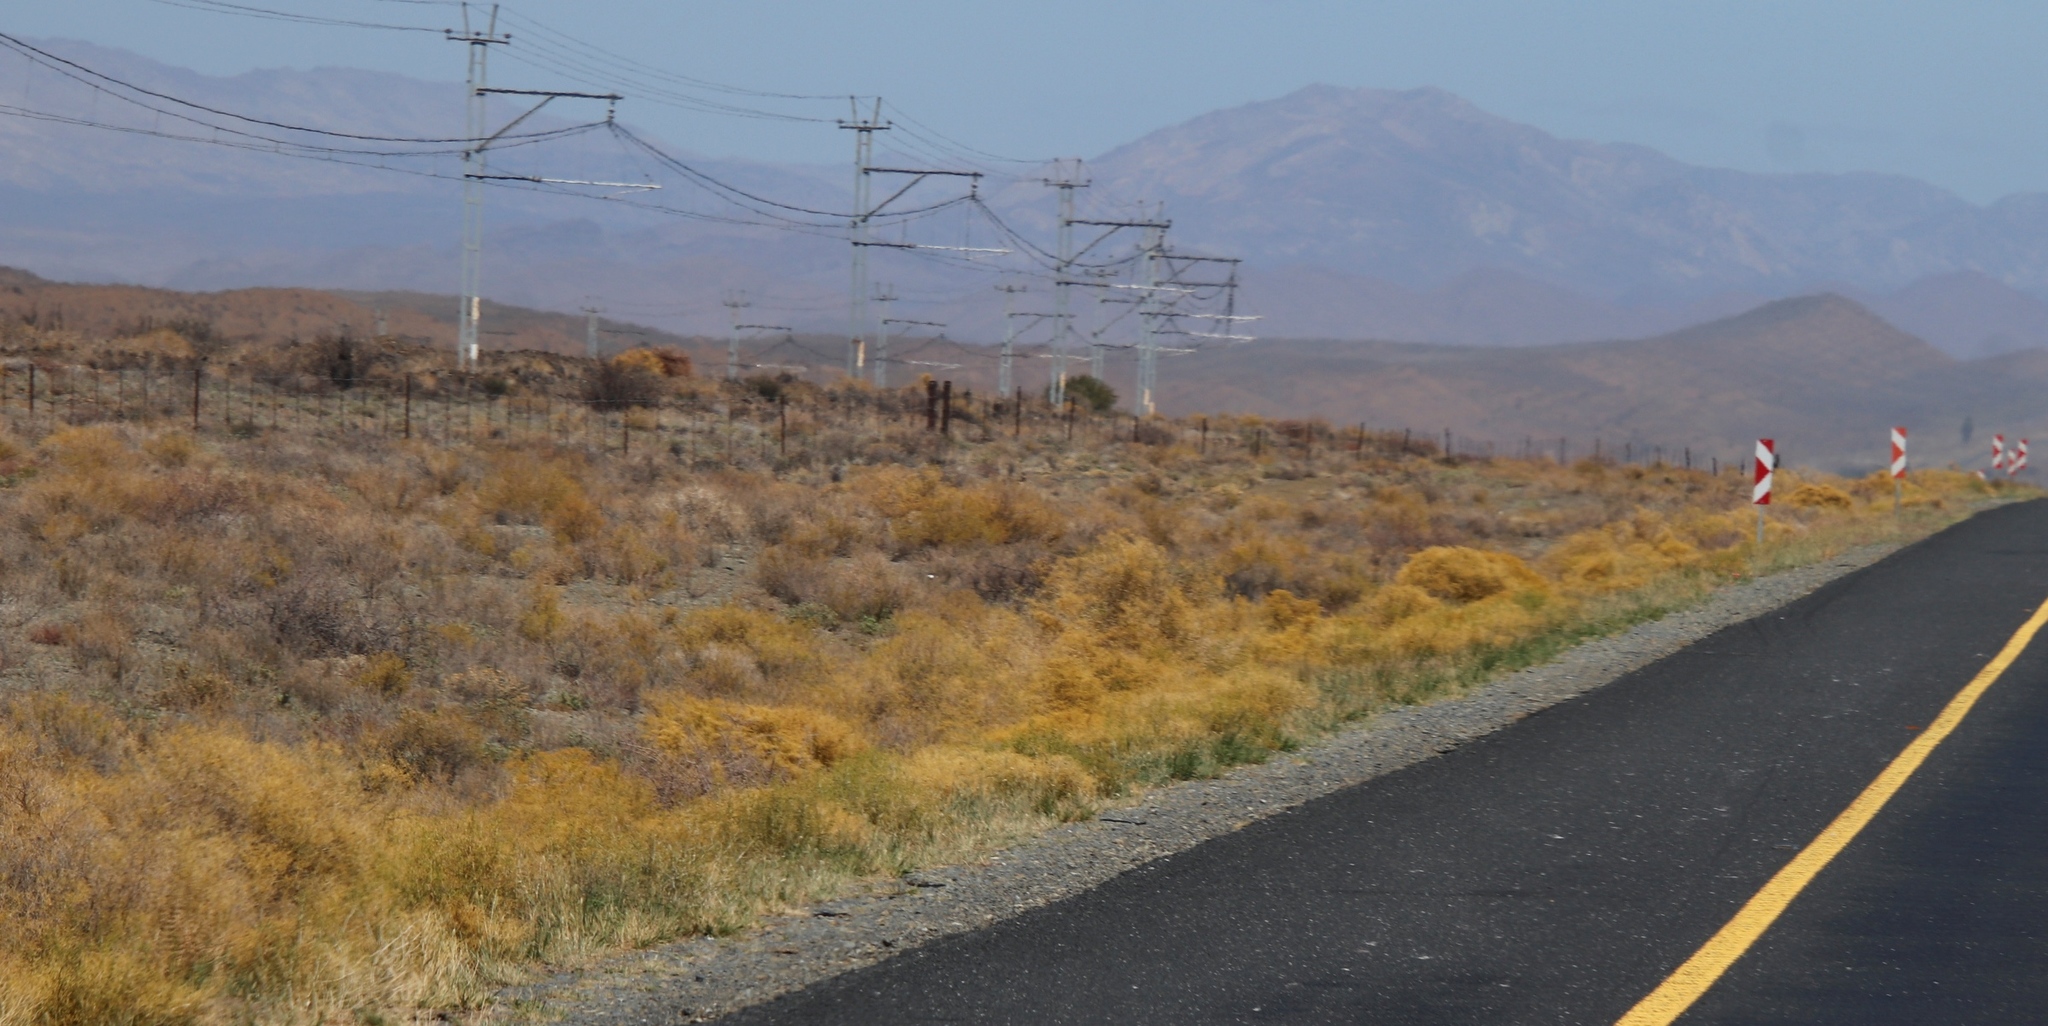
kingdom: Plantae
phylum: Tracheophyta
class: Magnoliopsida
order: Caryophyllales
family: Aizoaceae
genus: Aizoon
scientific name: Aizoon africanum
